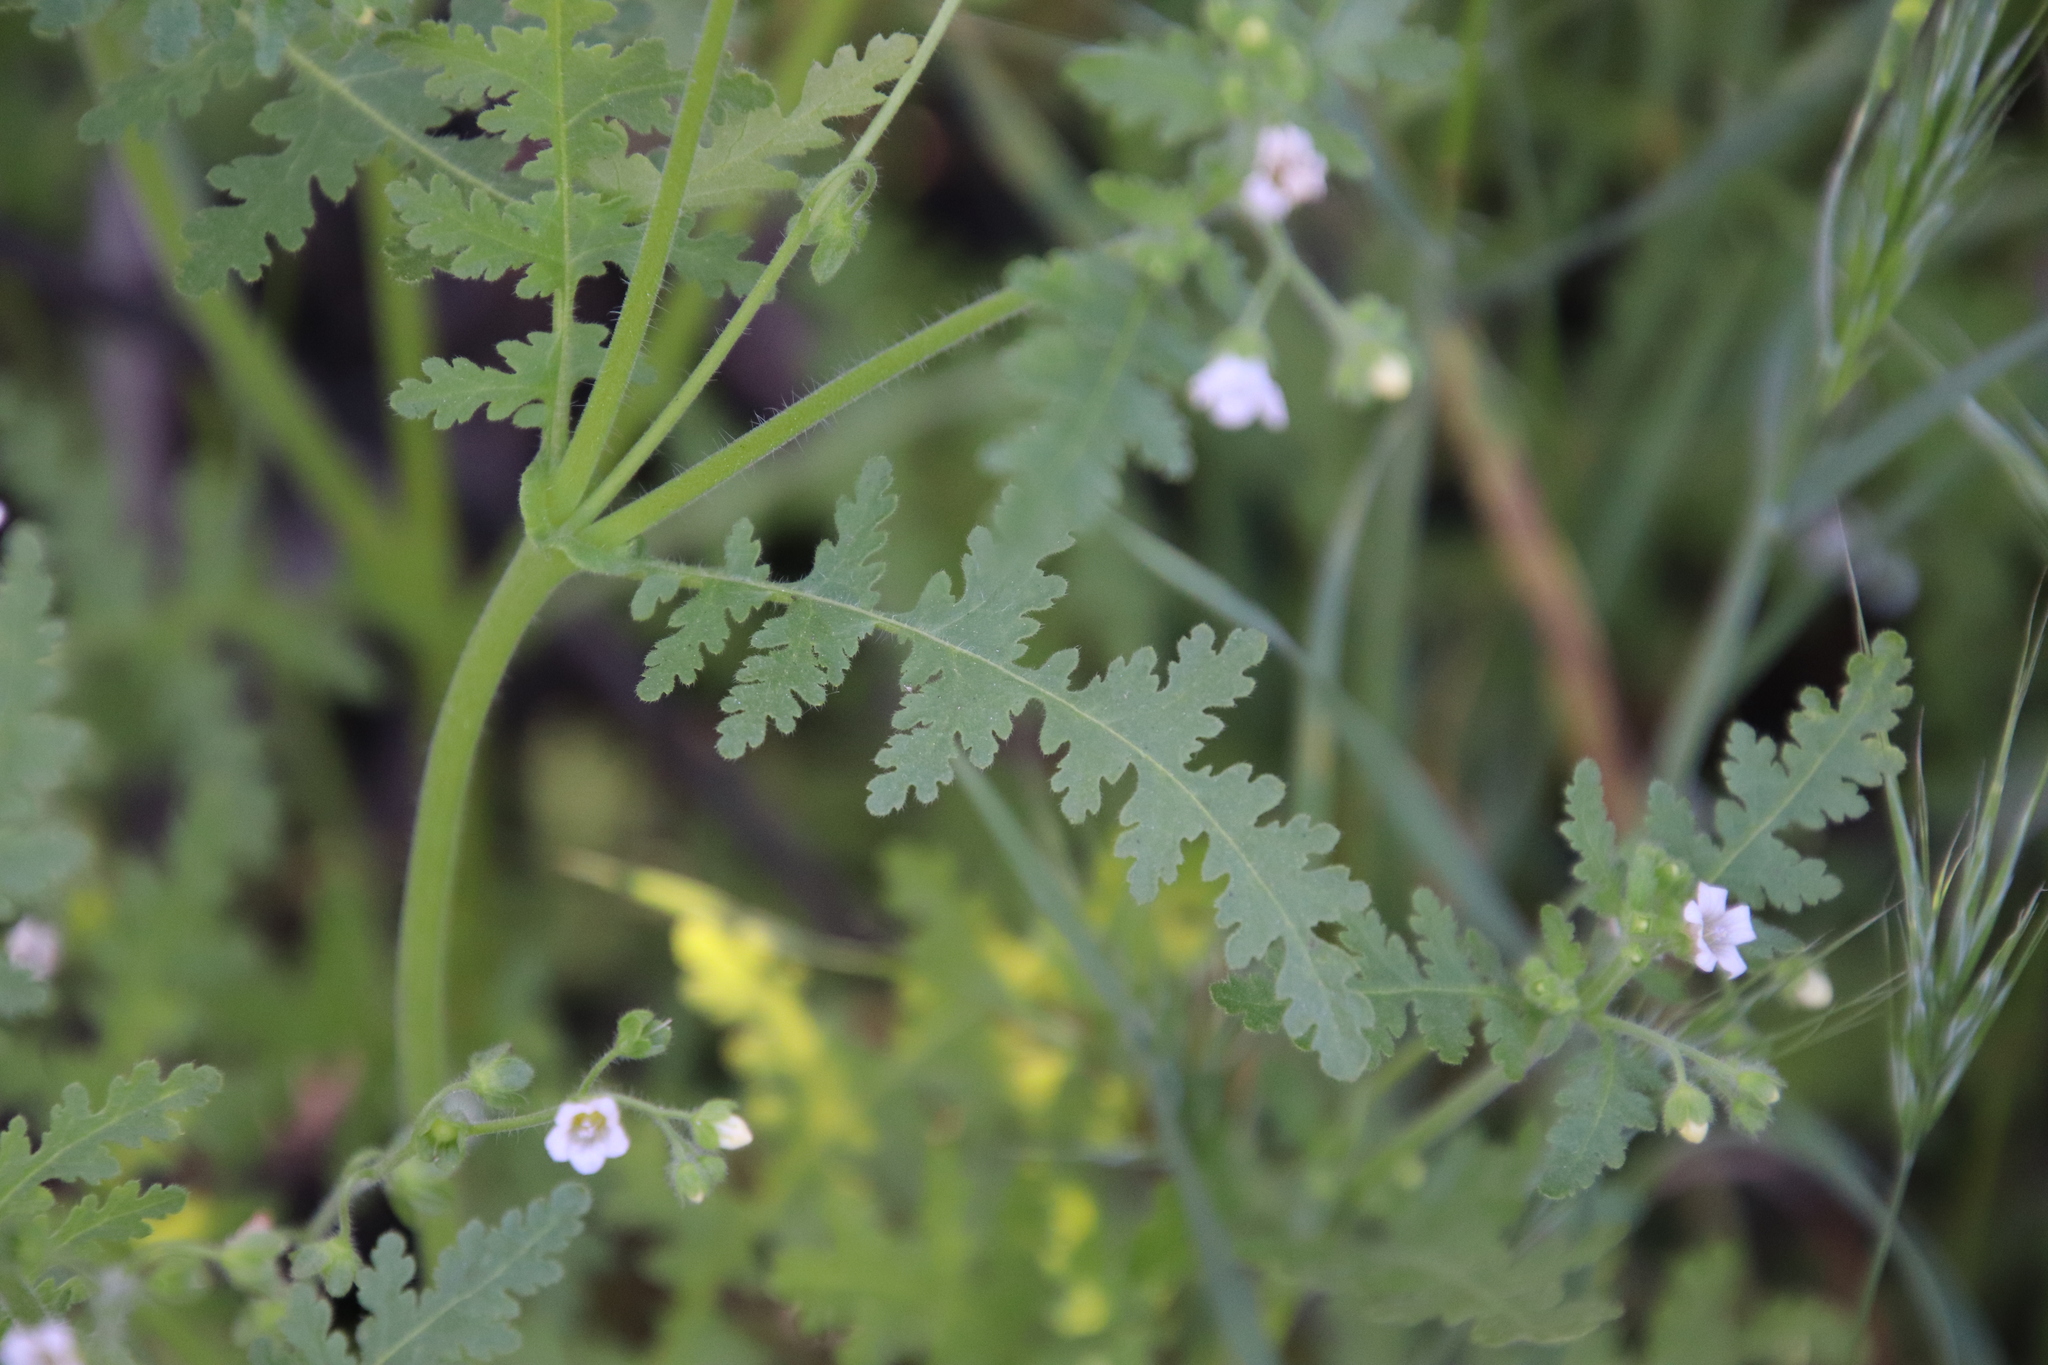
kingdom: Plantae
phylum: Tracheophyta
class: Magnoliopsida
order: Boraginales
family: Hydrophyllaceae
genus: Eucrypta
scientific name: Eucrypta chrysanthemifolia
